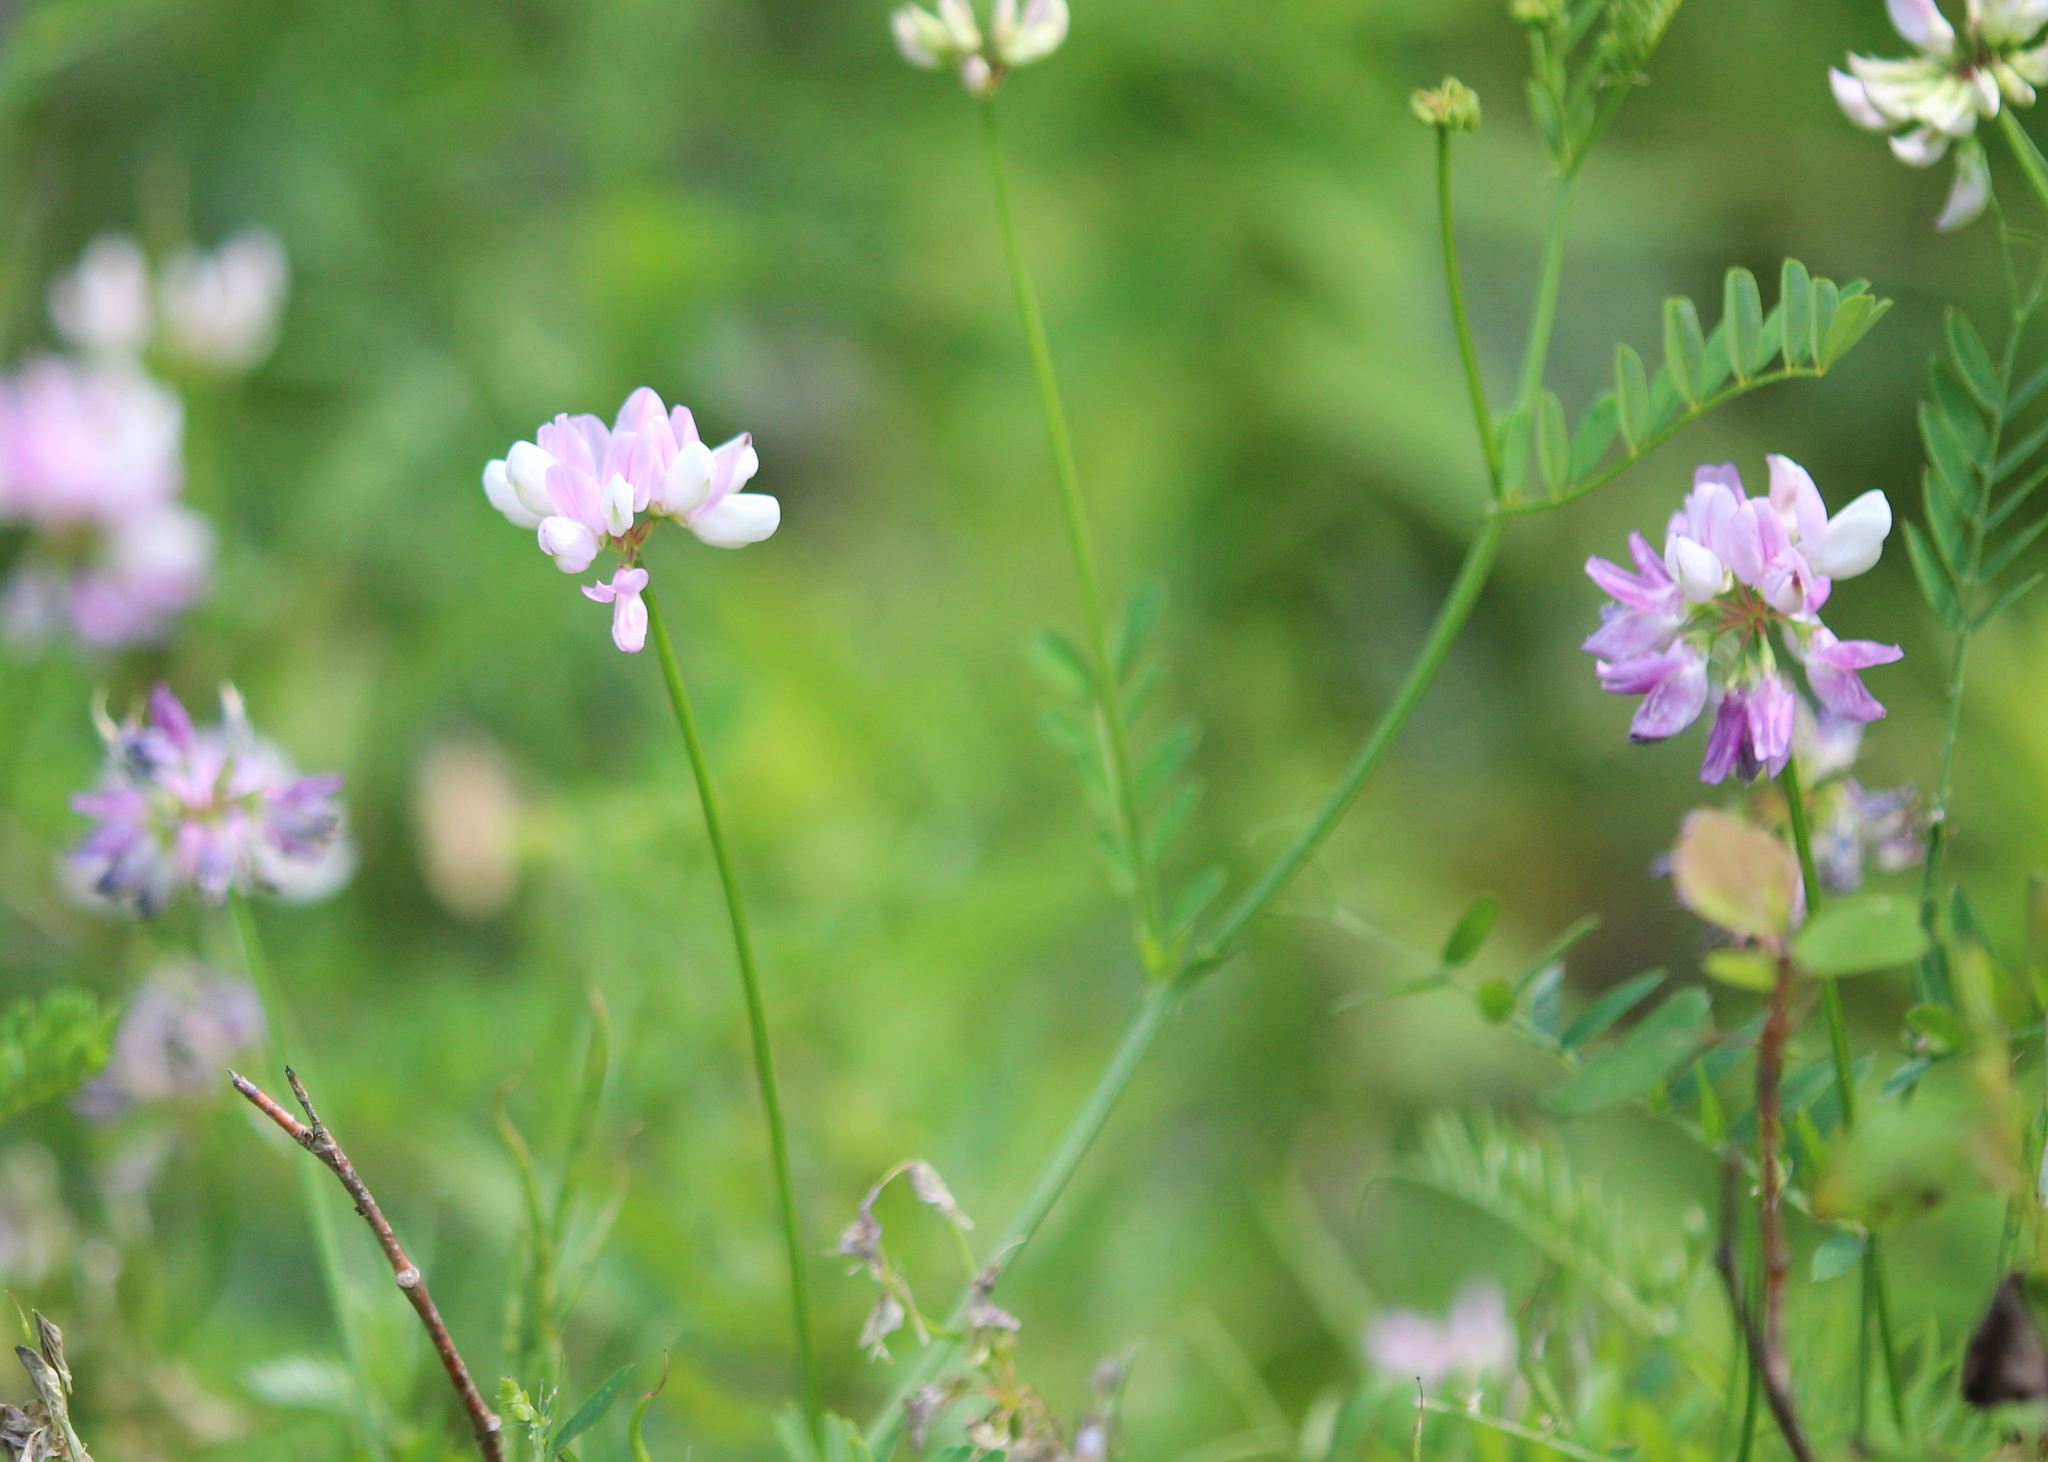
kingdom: Plantae
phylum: Tracheophyta
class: Magnoliopsida
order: Fabales
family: Fabaceae
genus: Coronilla
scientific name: Coronilla varia
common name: Crownvetch
